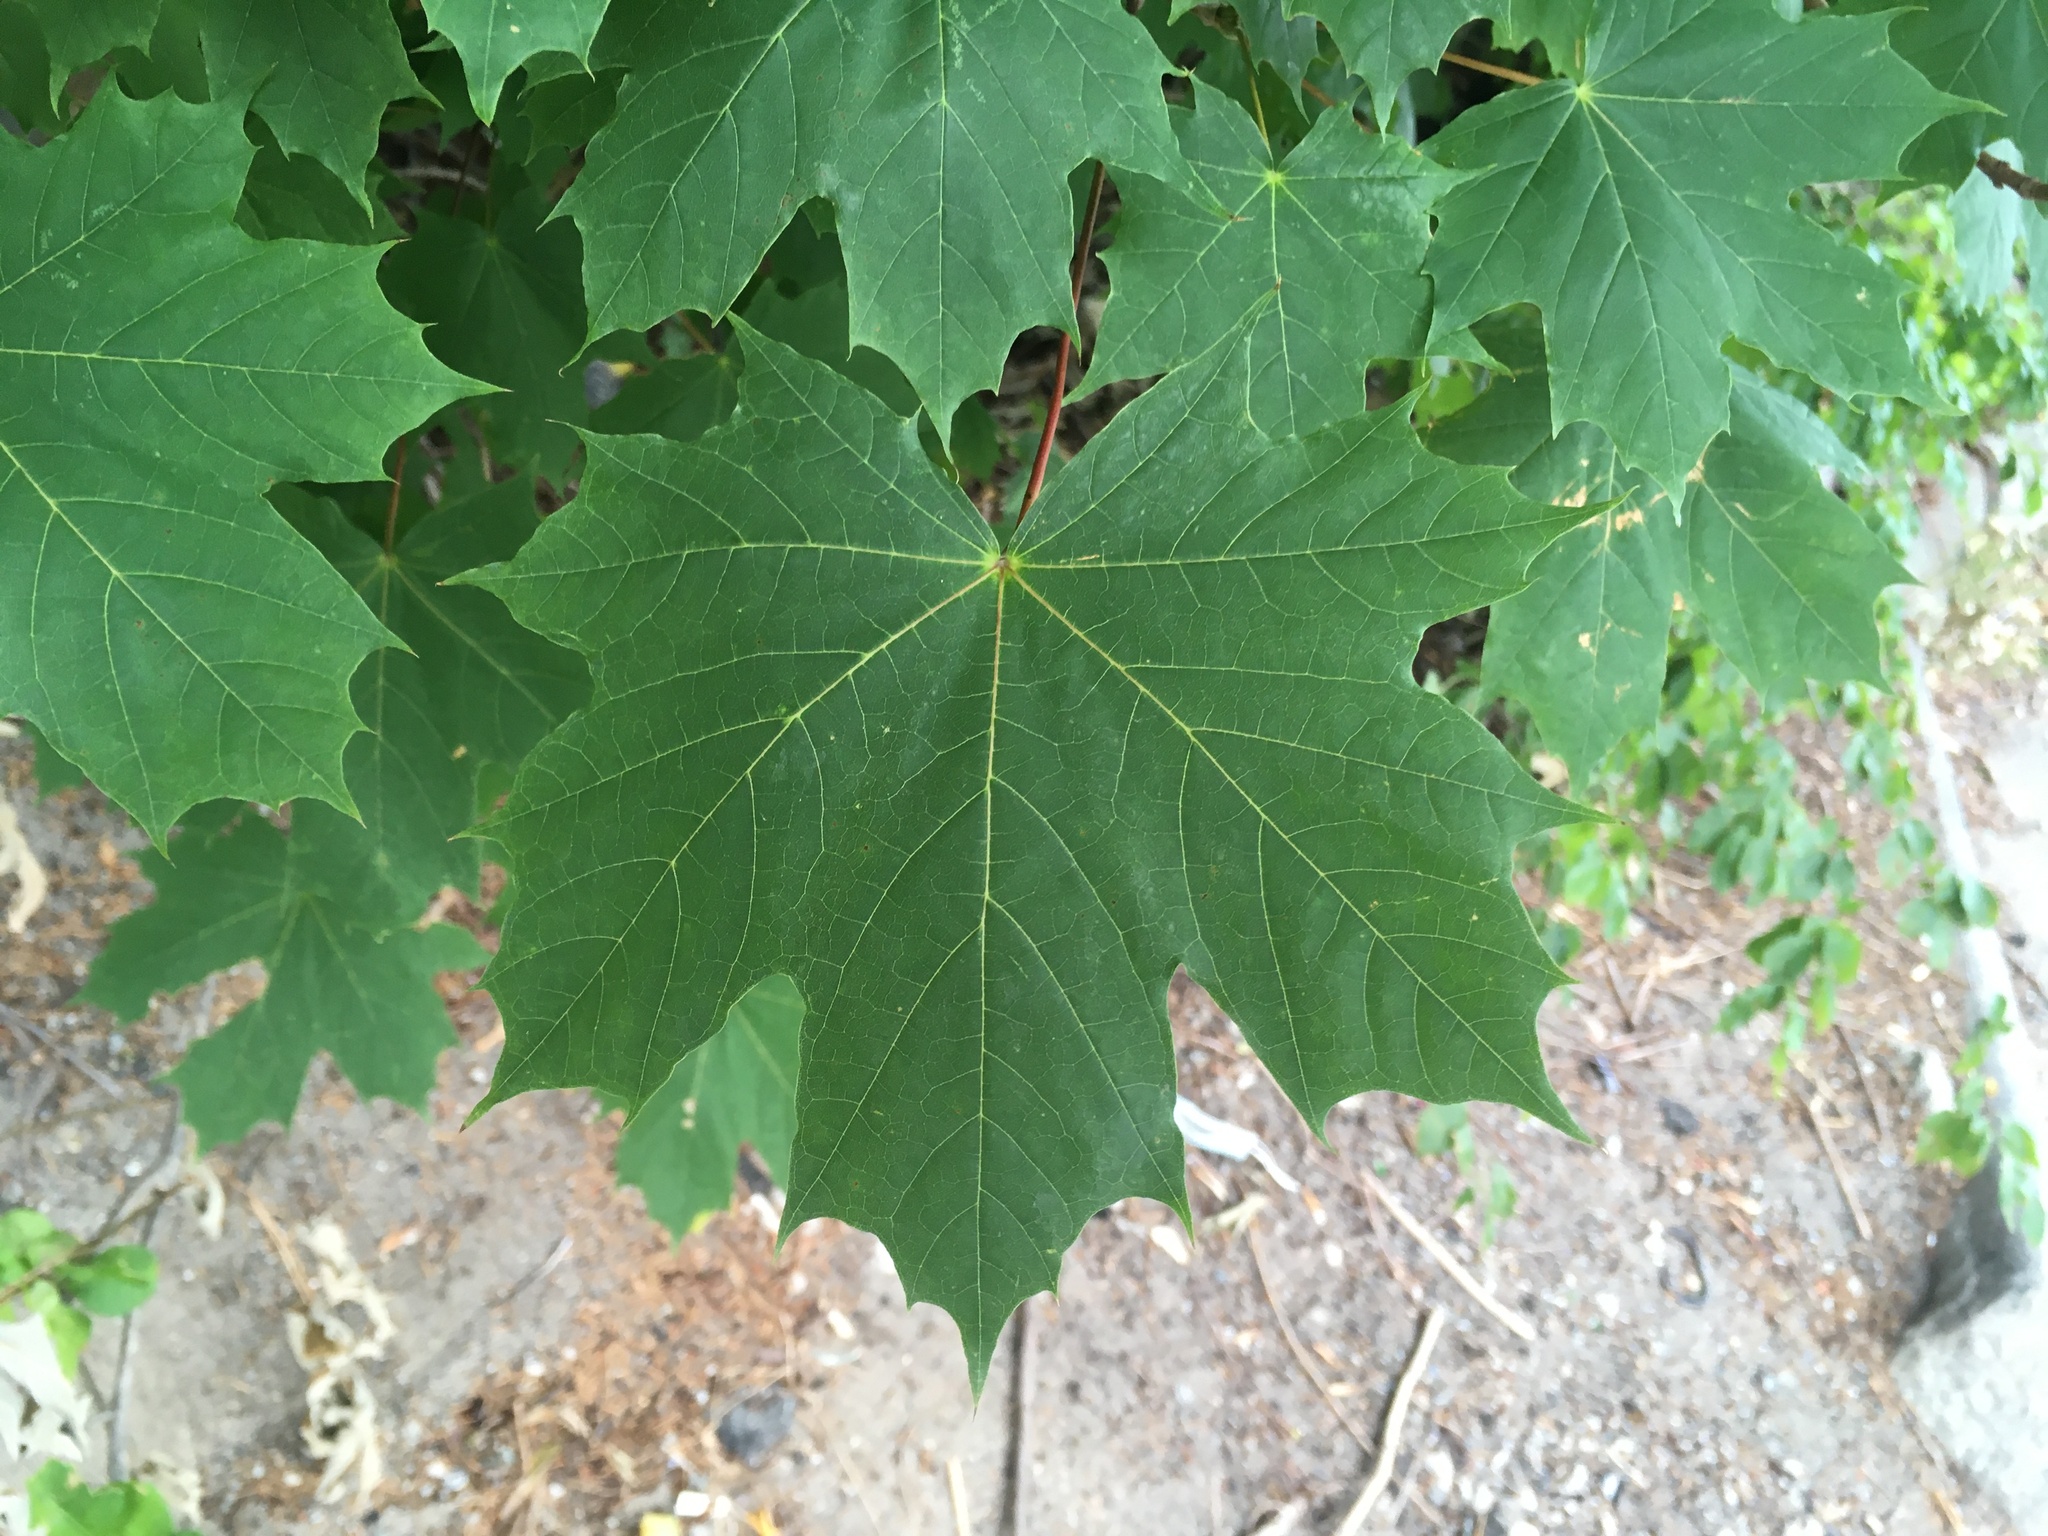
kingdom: Plantae
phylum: Tracheophyta
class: Magnoliopsida
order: Sapindales
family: Sapindaceae
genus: Acer
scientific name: Acer platanoides
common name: Norway maple
